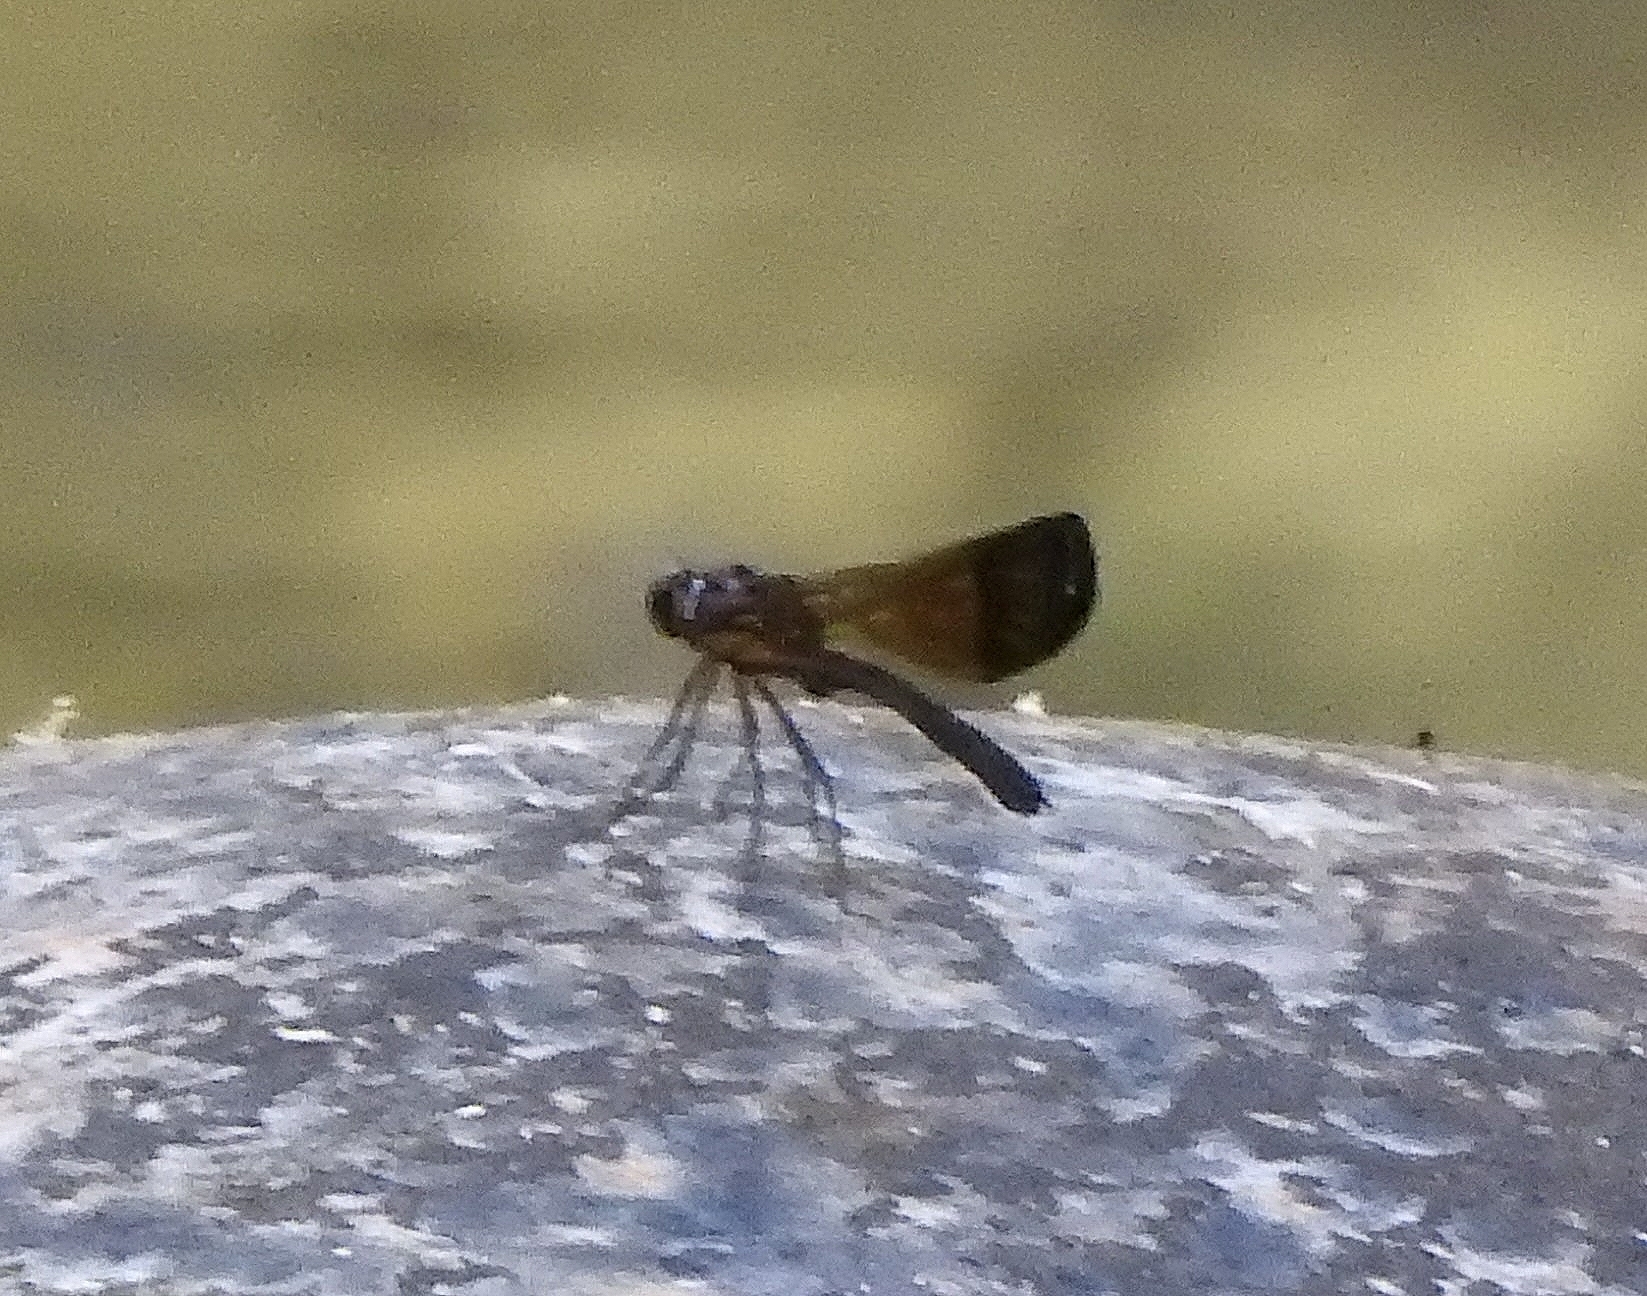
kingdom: Animalia
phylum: Arthropoda
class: Insecta
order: Odonata
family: Chlorocyphidae
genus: Heliocypha
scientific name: Heliocypha bisignata
